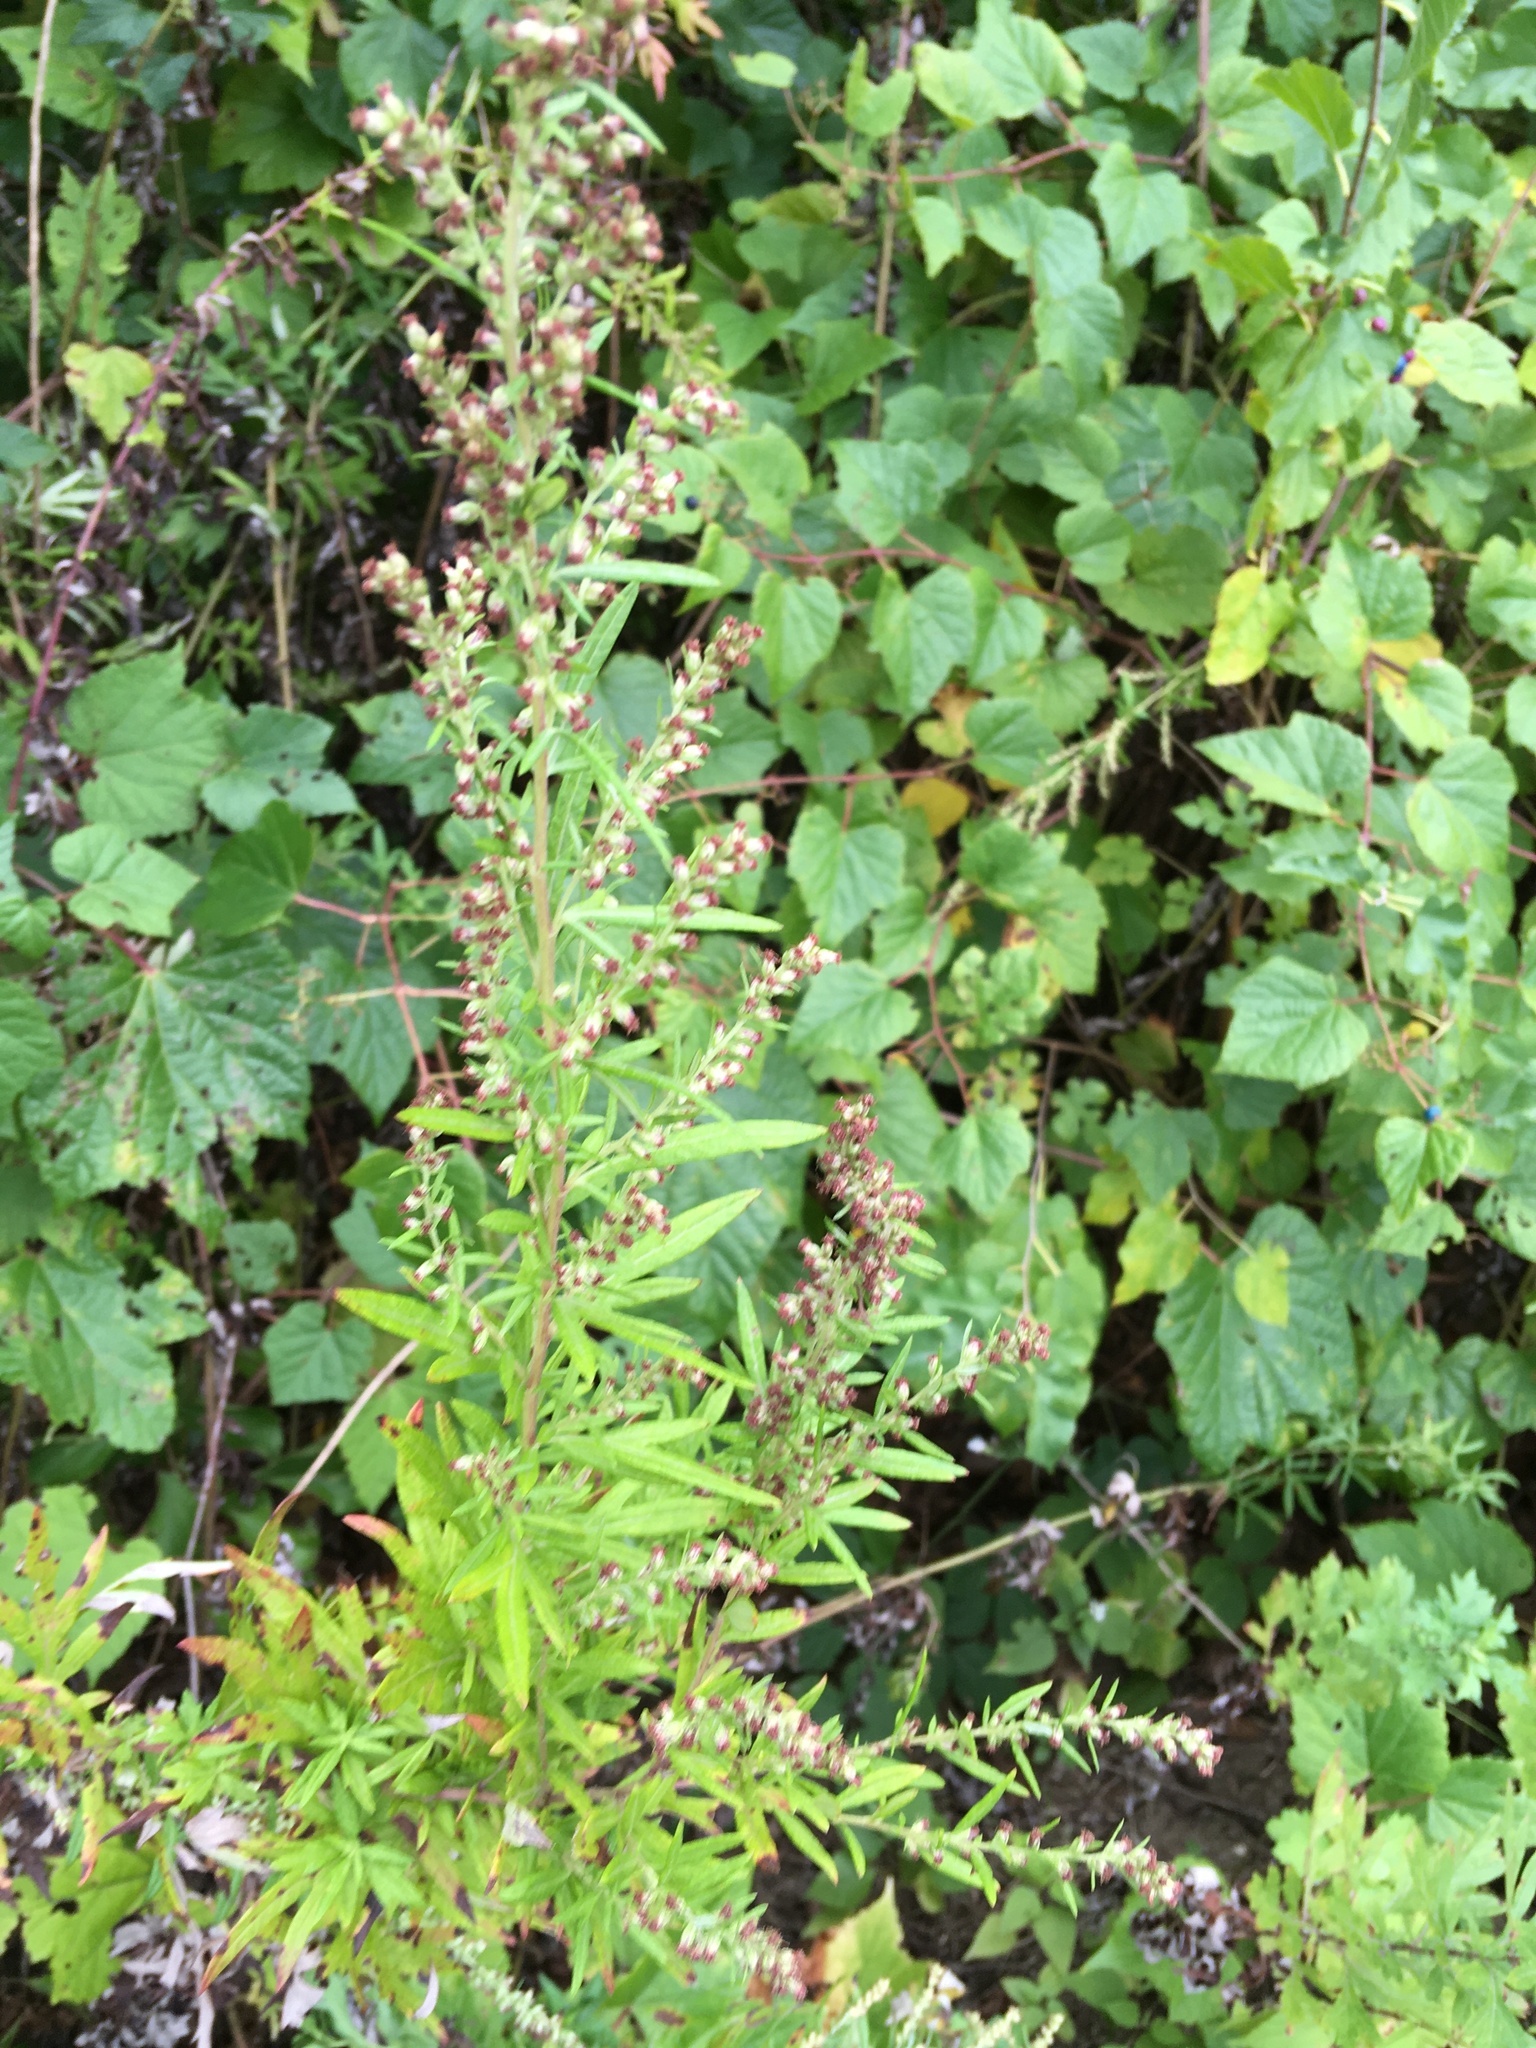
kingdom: Plantae
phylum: Tracheophyta
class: Magnoliopsida
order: Asterales
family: Asteraceae
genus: Artemisia
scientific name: Artemisia vulgaris
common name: Mugwort
